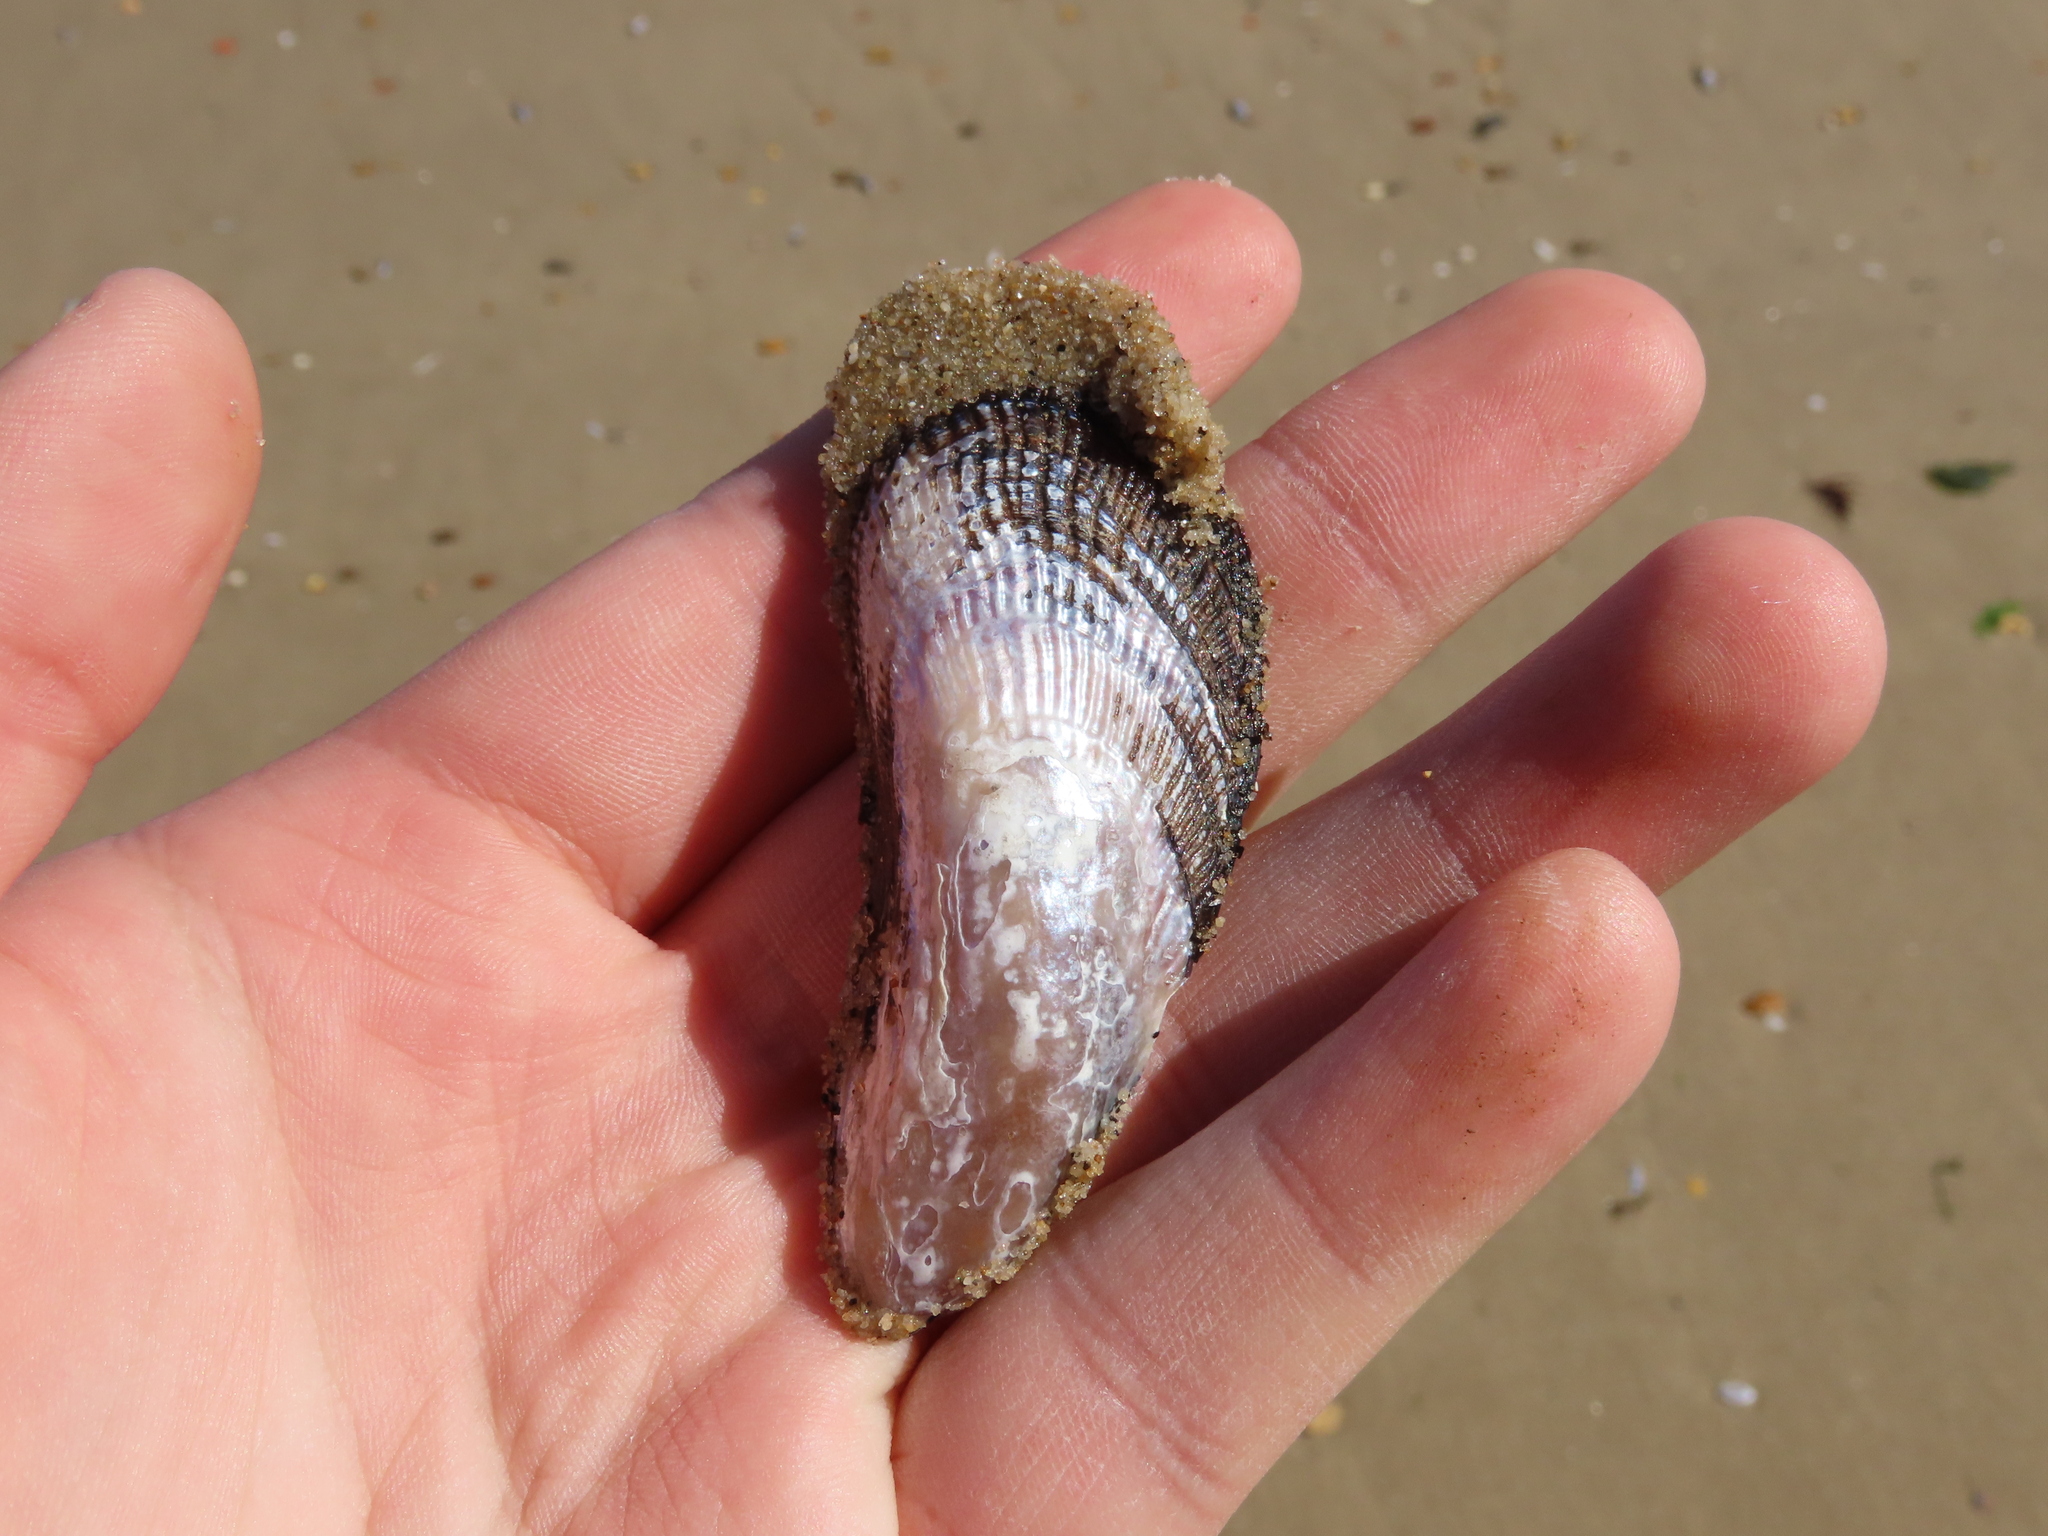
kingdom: Animalia
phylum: Mollusca
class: Bivalvia
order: Mytilida
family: Mytilidae
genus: Geukensia
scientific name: Geukensia demissa
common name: Ribbed mussel
